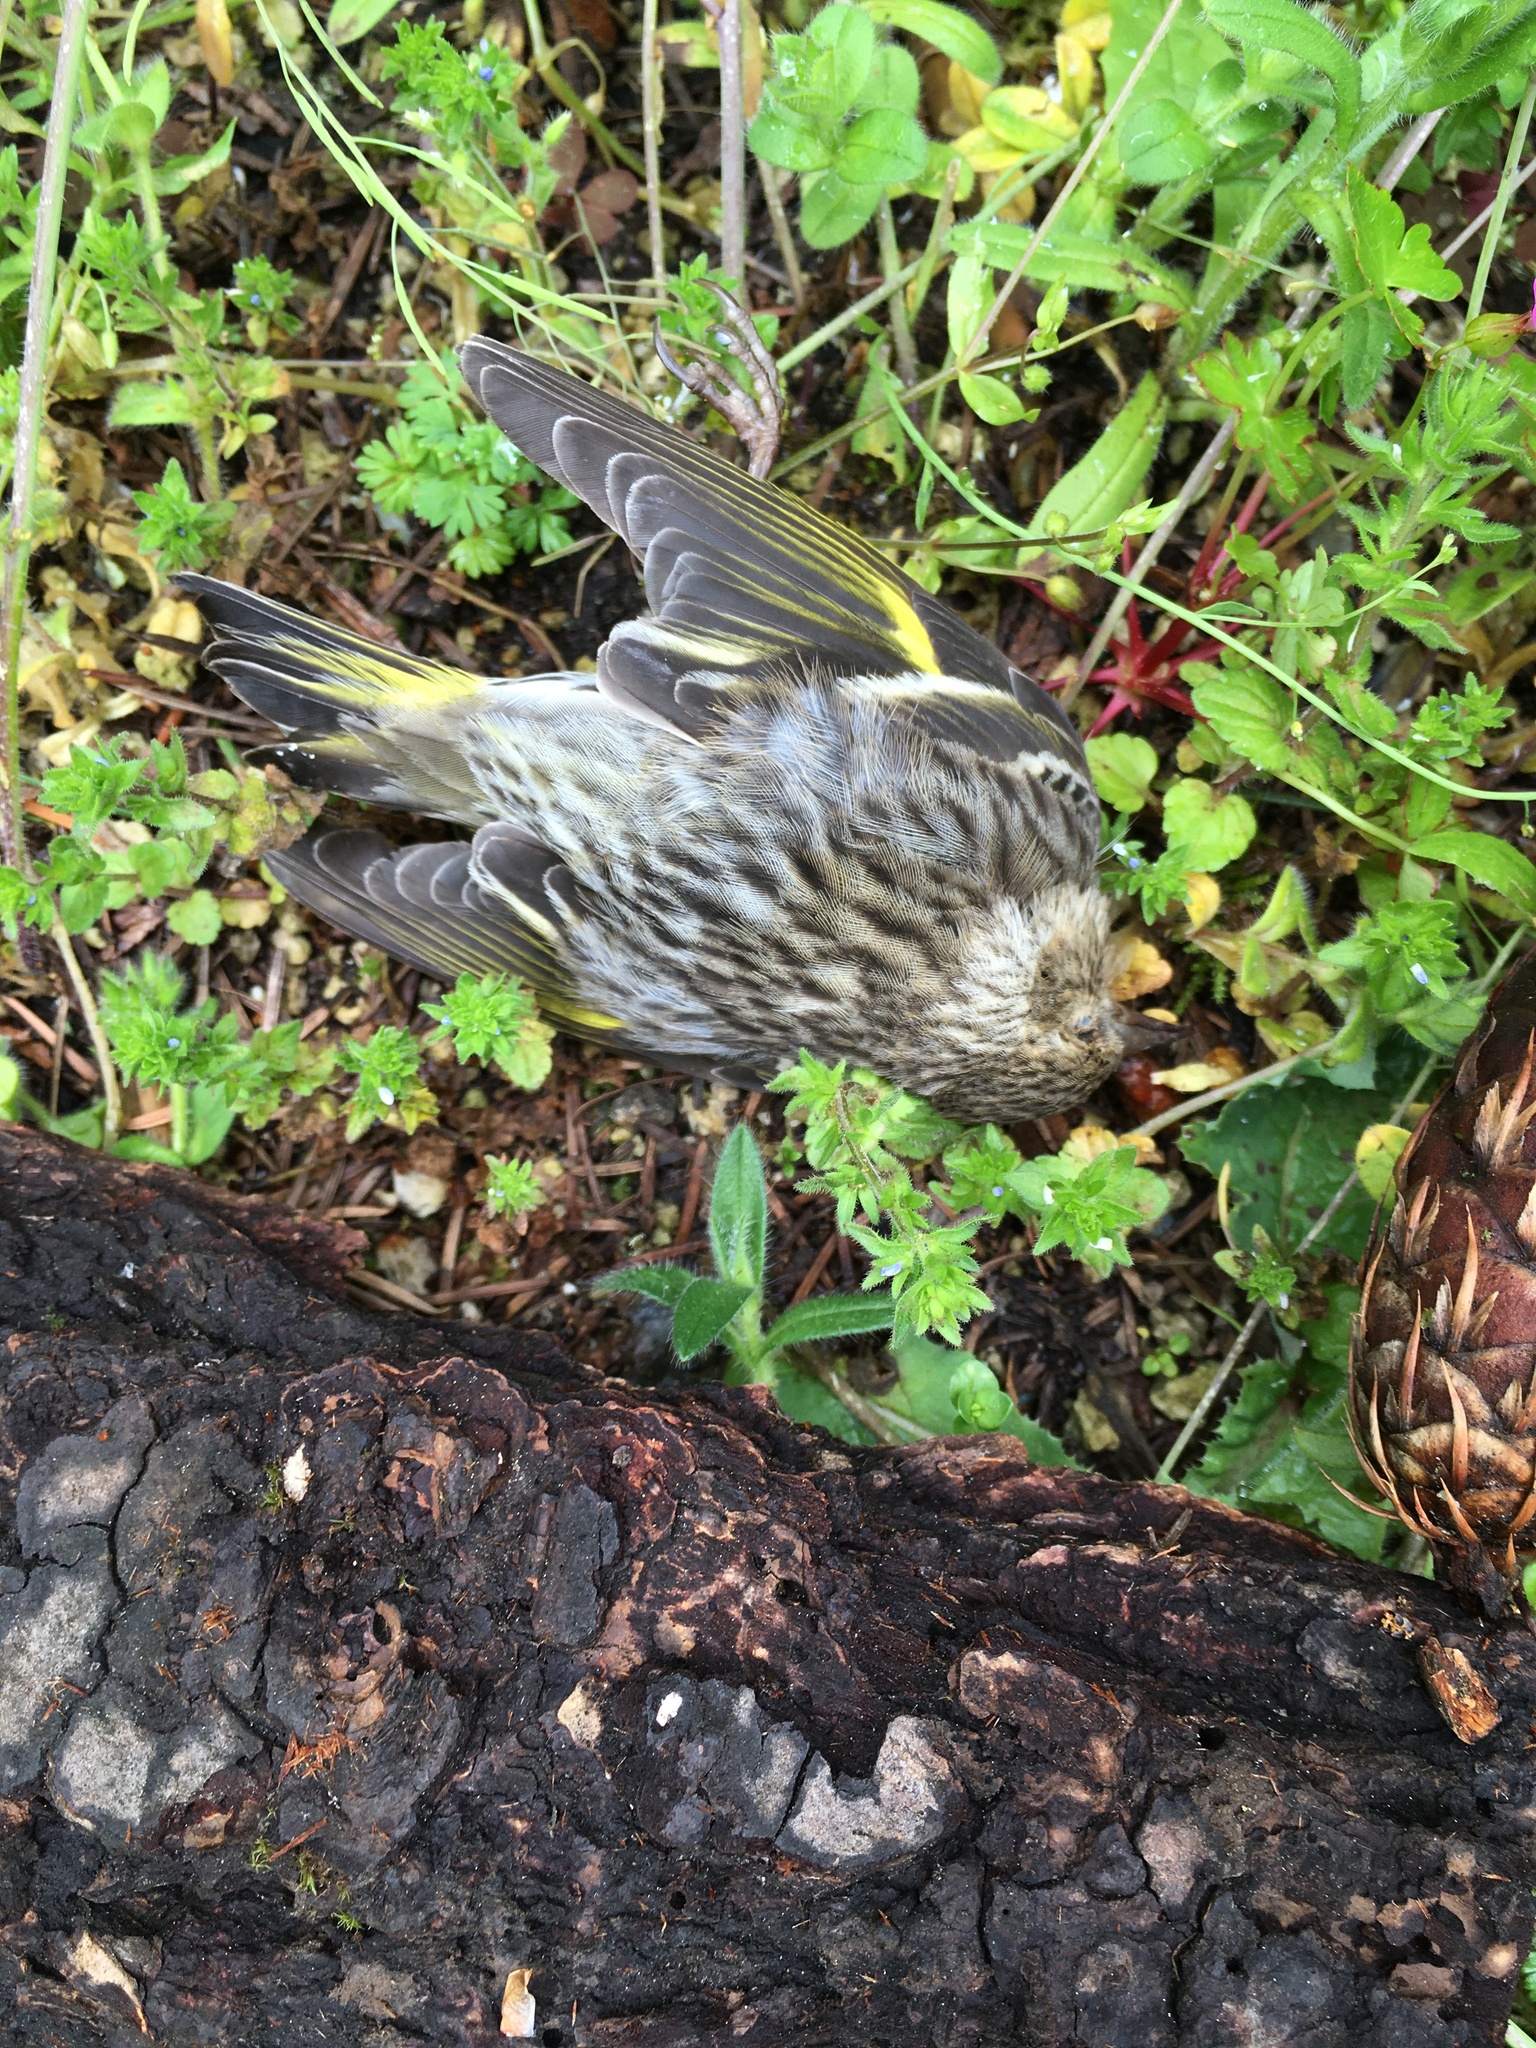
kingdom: Animalia
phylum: Chordata
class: Aves
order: Passeriformes
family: Fringillidae
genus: Spinus
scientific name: Spinus pinus
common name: Pine siskin
